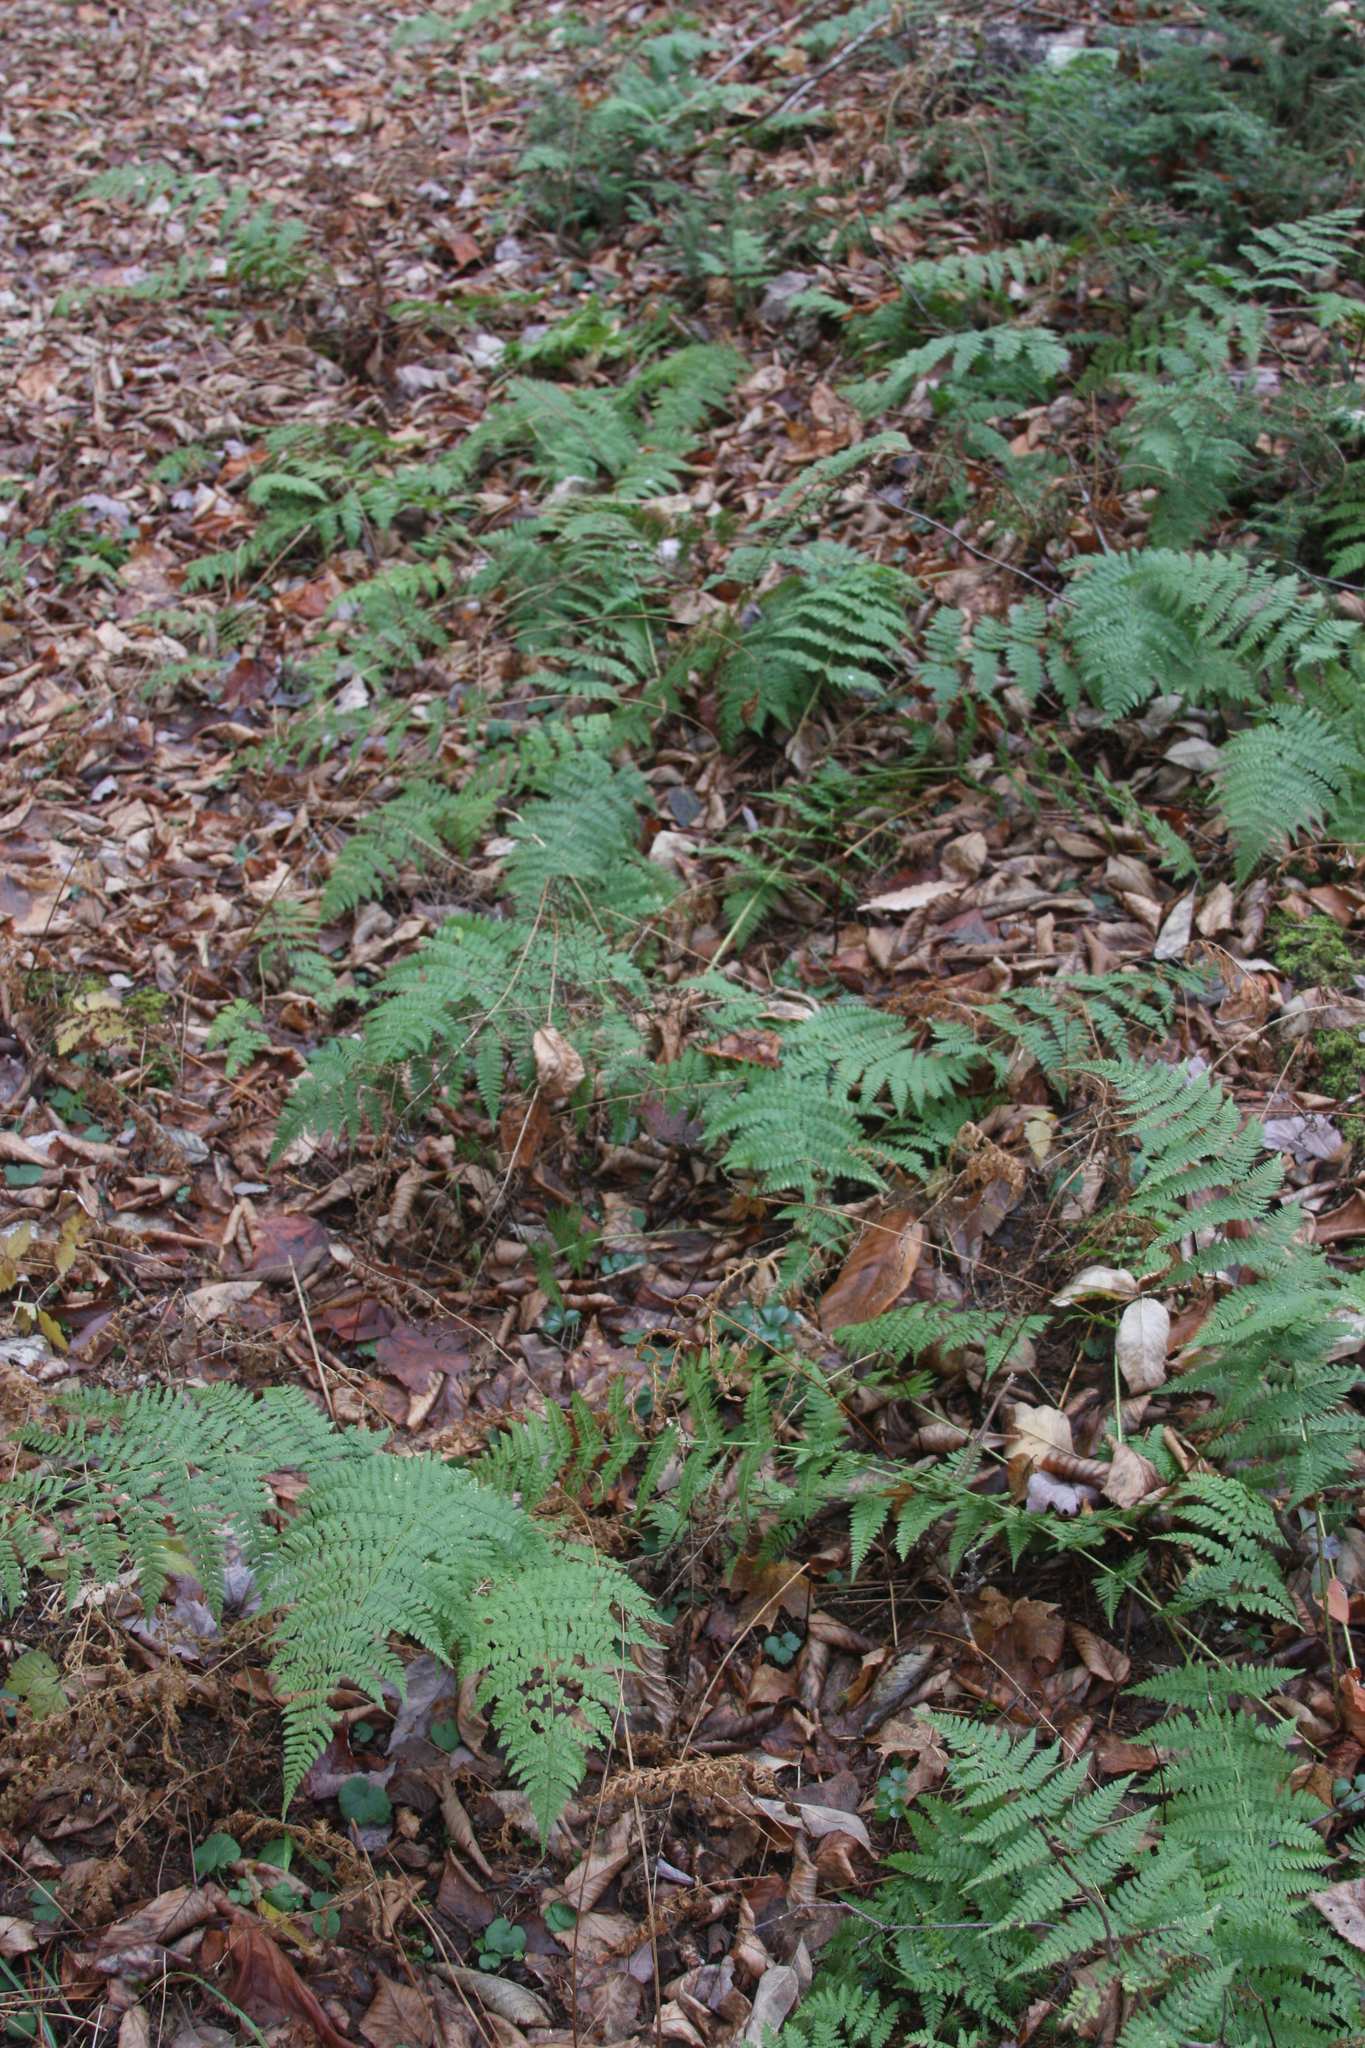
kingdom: Plantae
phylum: Tracheophyta
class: Polypodiopsida
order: Polypodiales
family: Dryopteridaceae
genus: Dryopteris
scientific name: Dryopteris intermedia
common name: Evergreen wood fern
